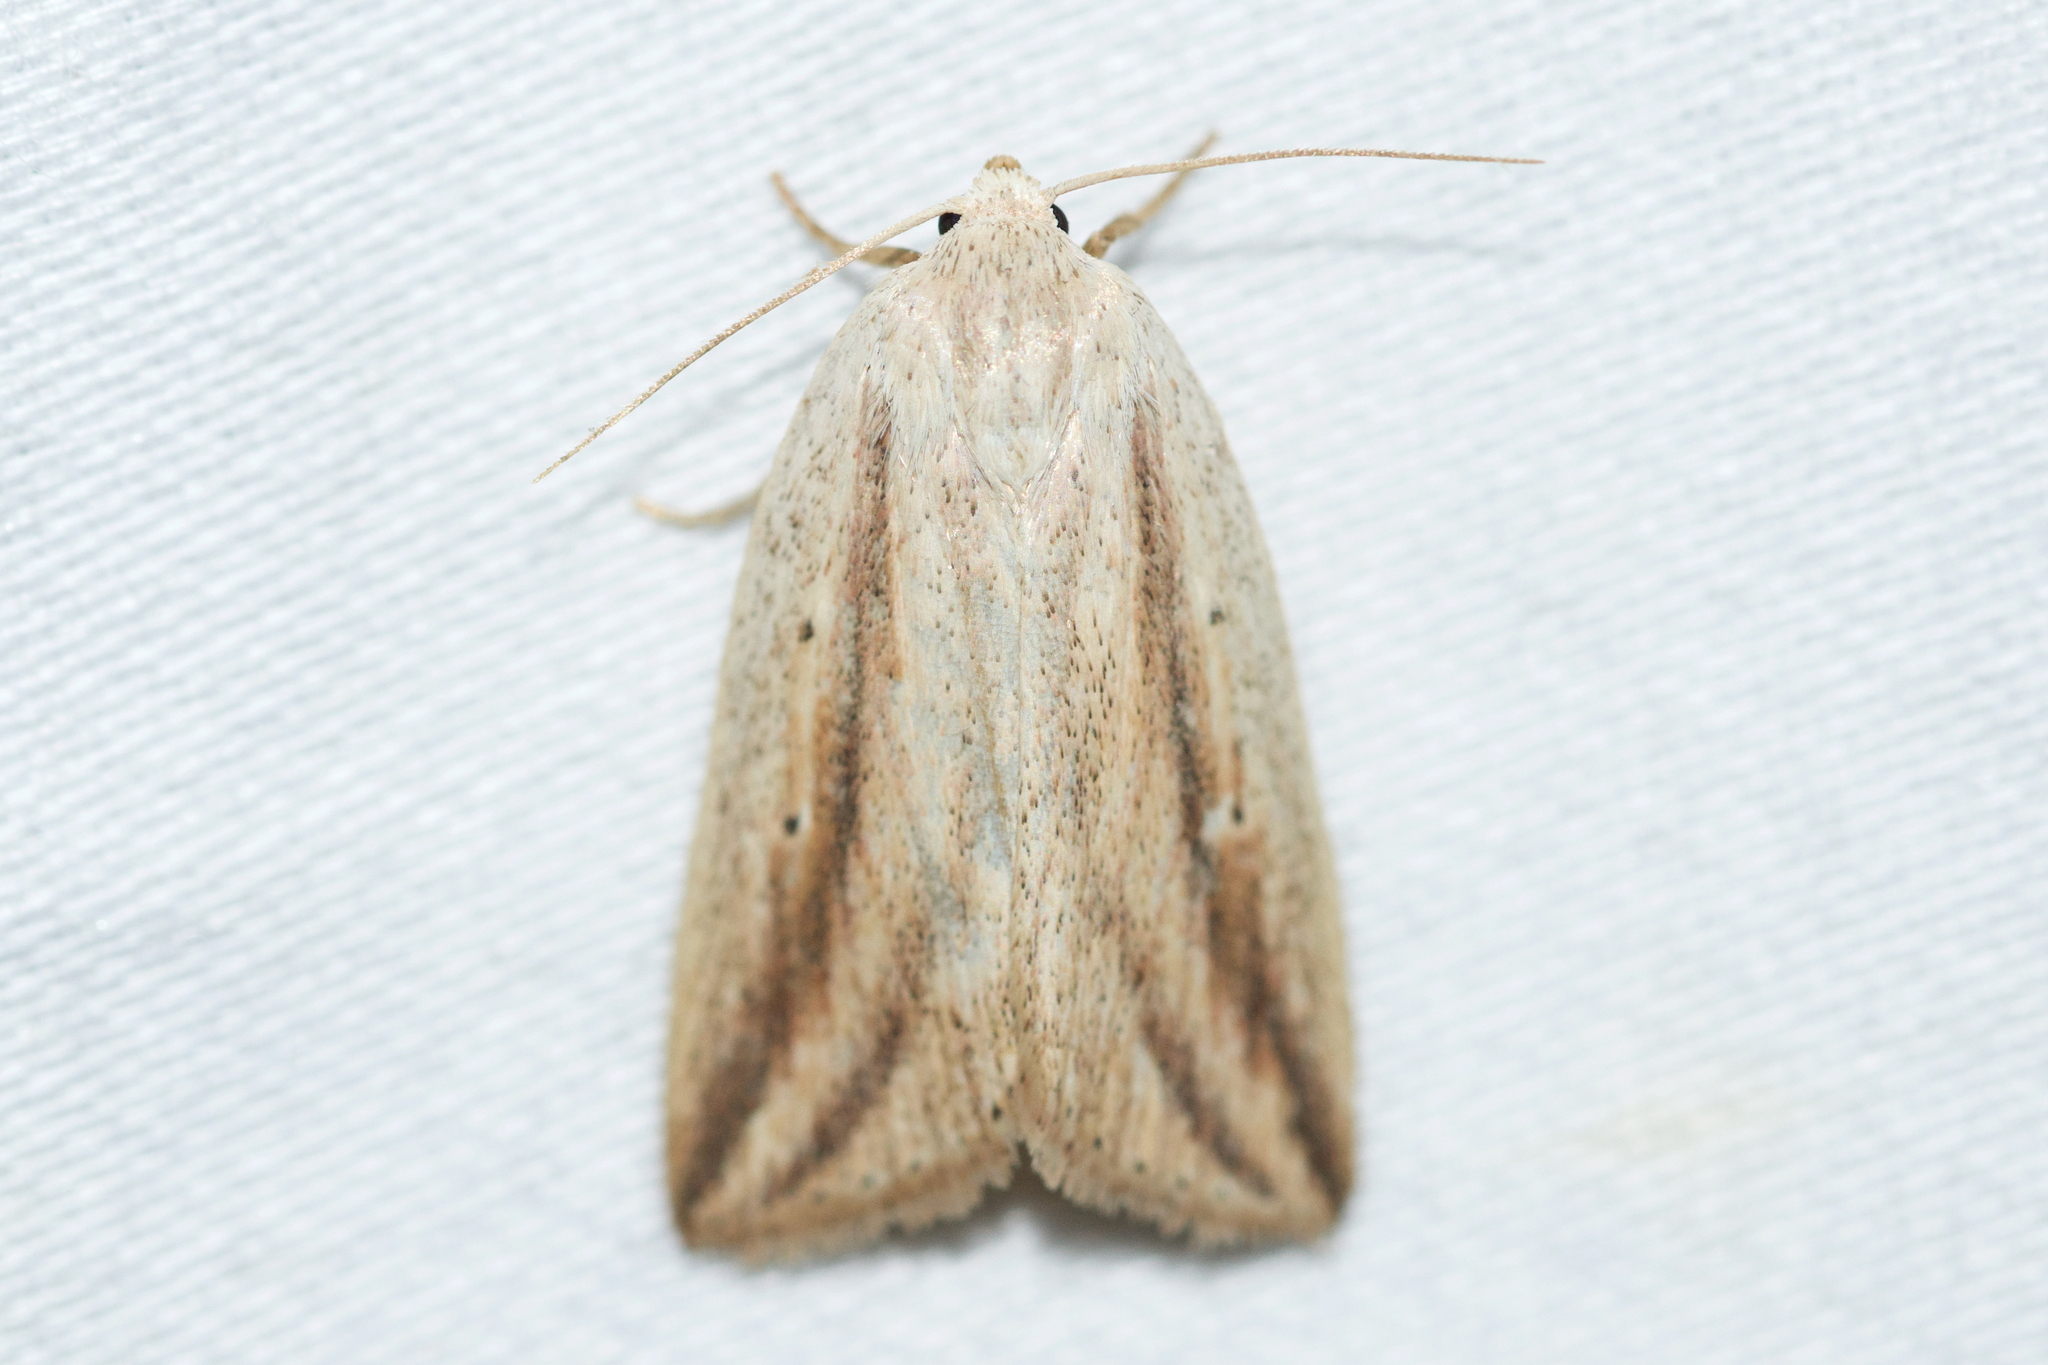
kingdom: Animalia
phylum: Arthropoda
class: Insecta
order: Lepidoptera
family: Noctuidae
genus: Amolita
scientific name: Amolita fessa
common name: Feeble grass moth
